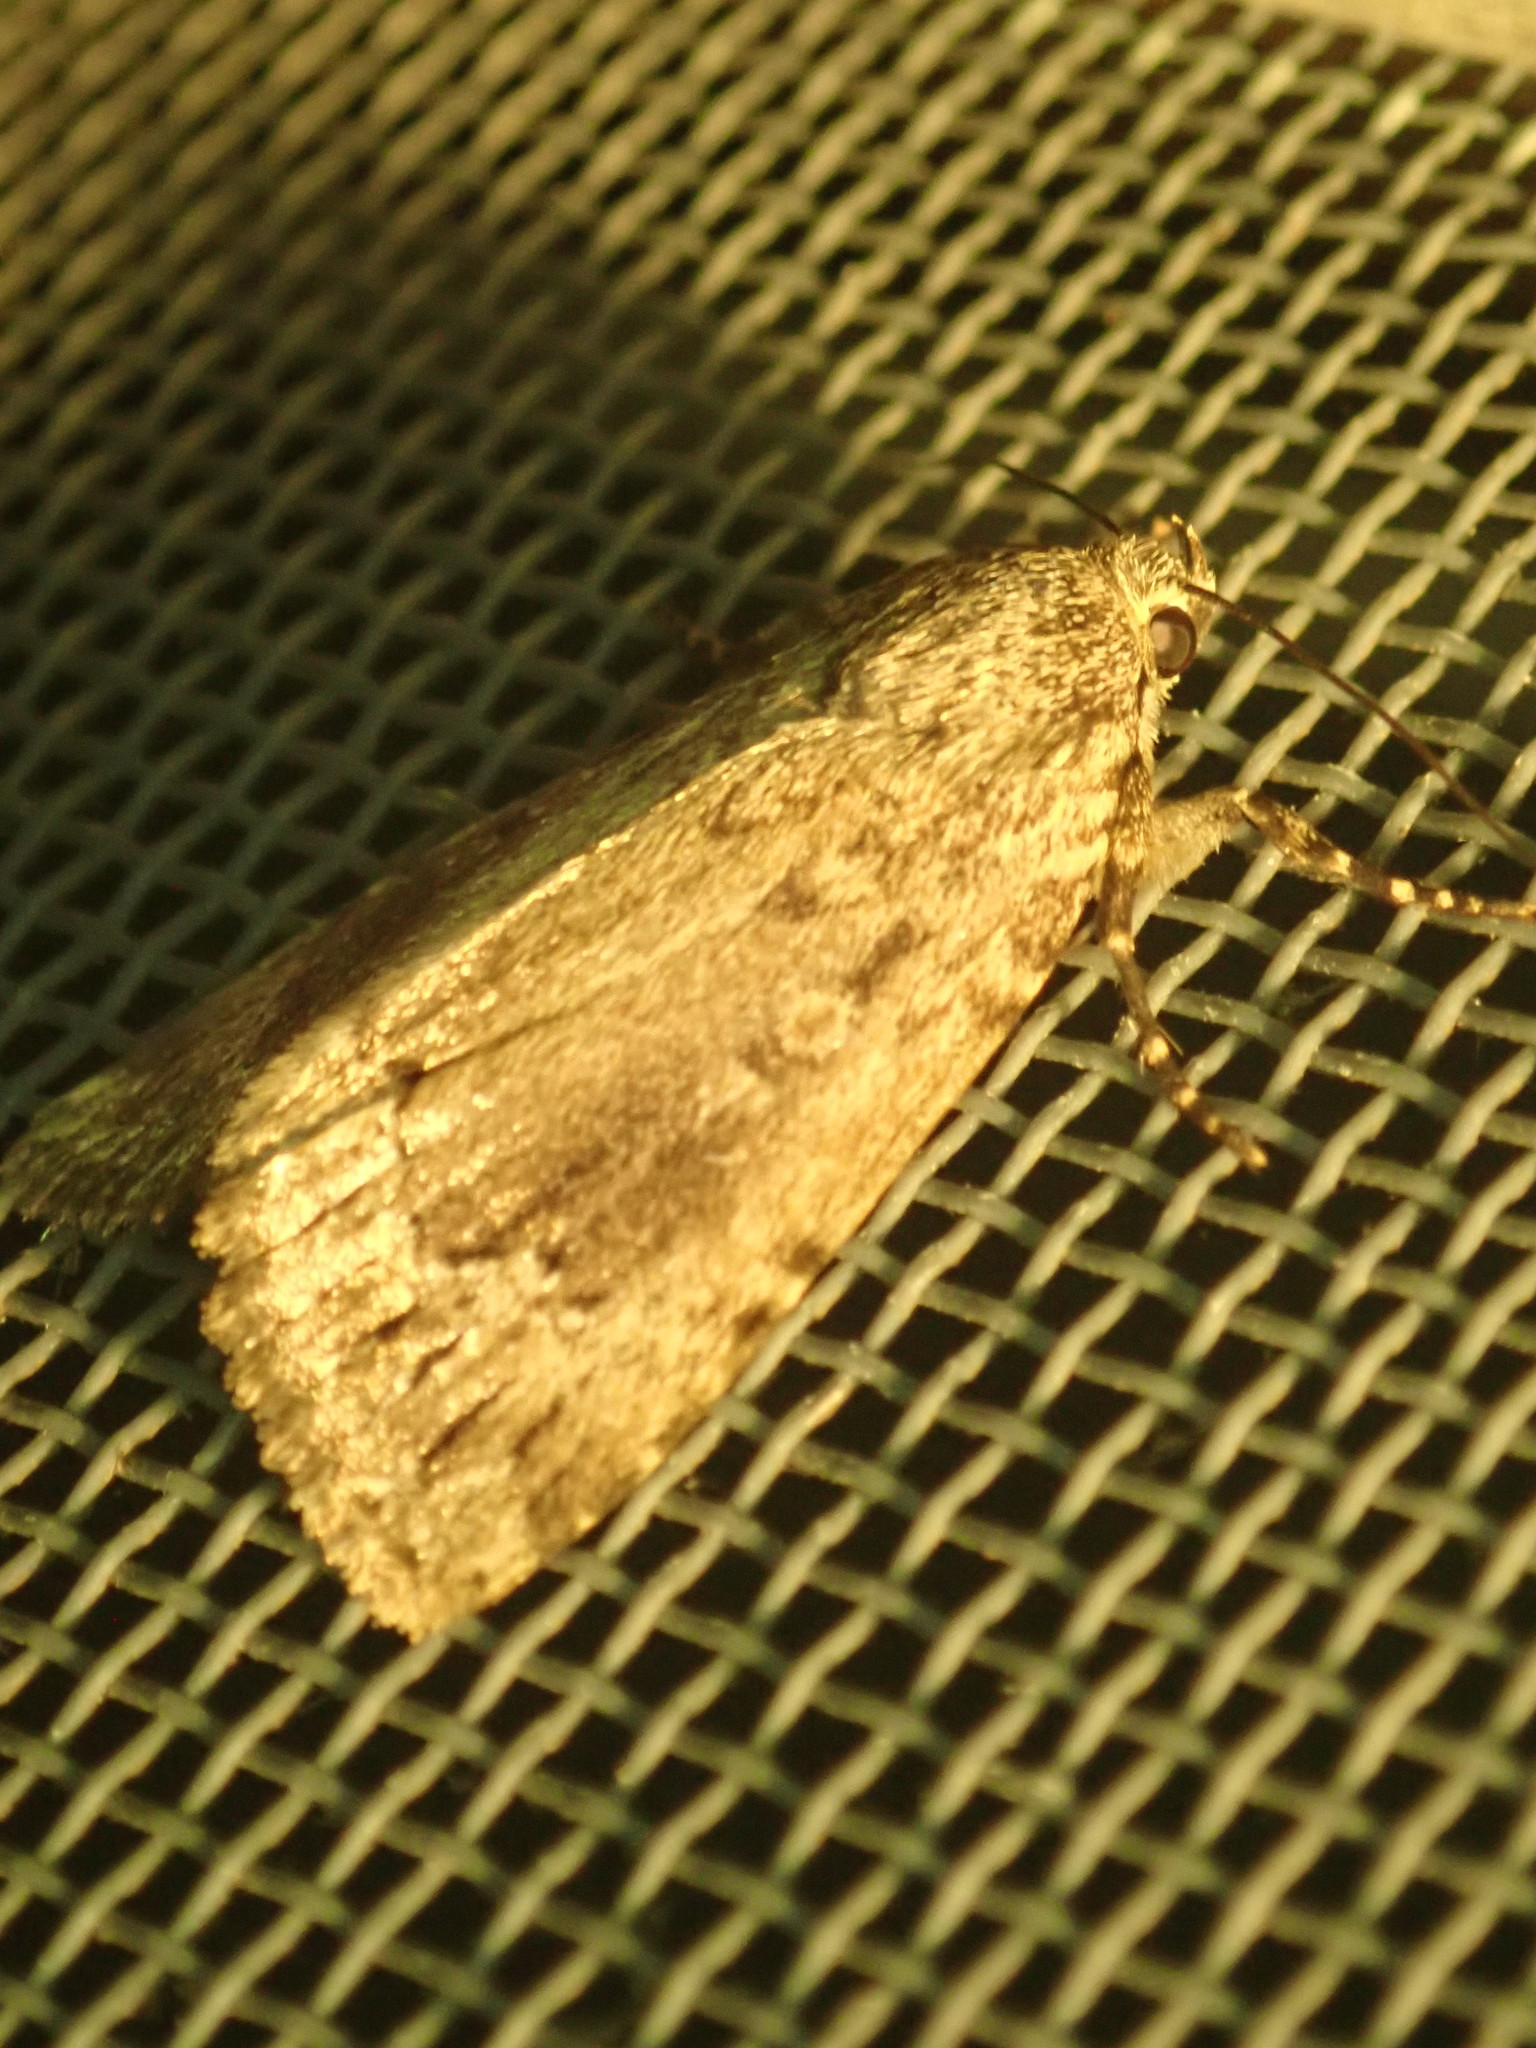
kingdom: Animalia
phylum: Arthropoda
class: Insecta
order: Lepidoptera
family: Noctuidae
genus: Amphipyra
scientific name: Amphipyra pyramidoides
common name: American copper underwing
